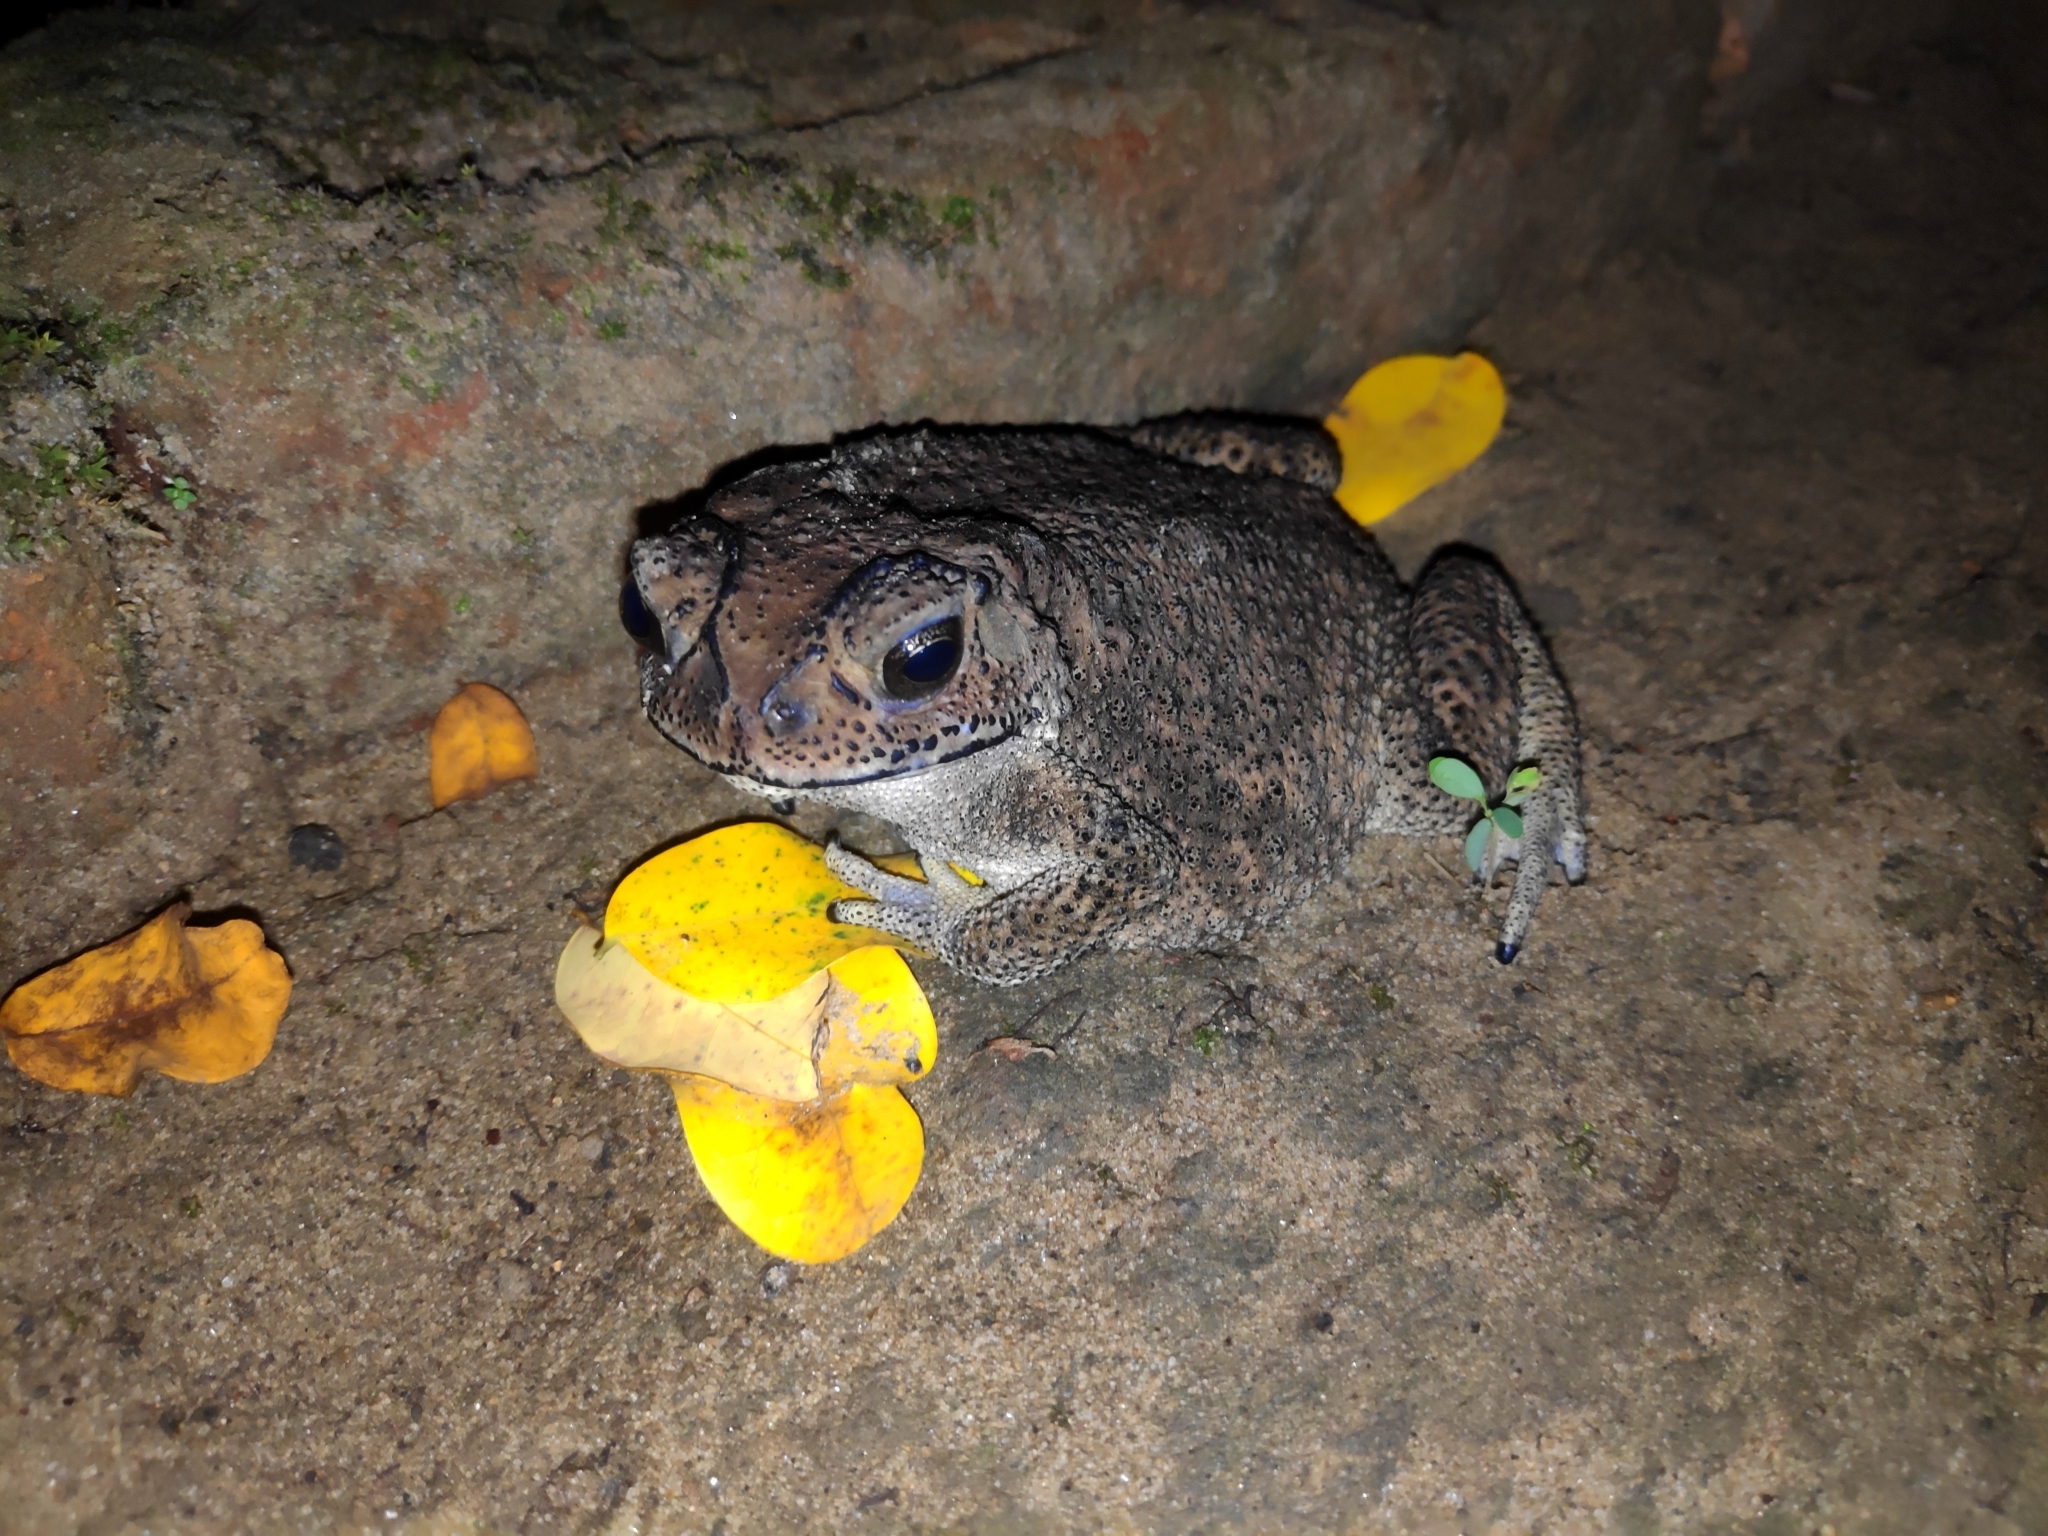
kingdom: Animalia
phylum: Chordata
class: Amphibia
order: Anura
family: Bufonidae
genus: Duttaphrynus
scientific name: Duttaphrynus melanostictus
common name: Common sunda toad
